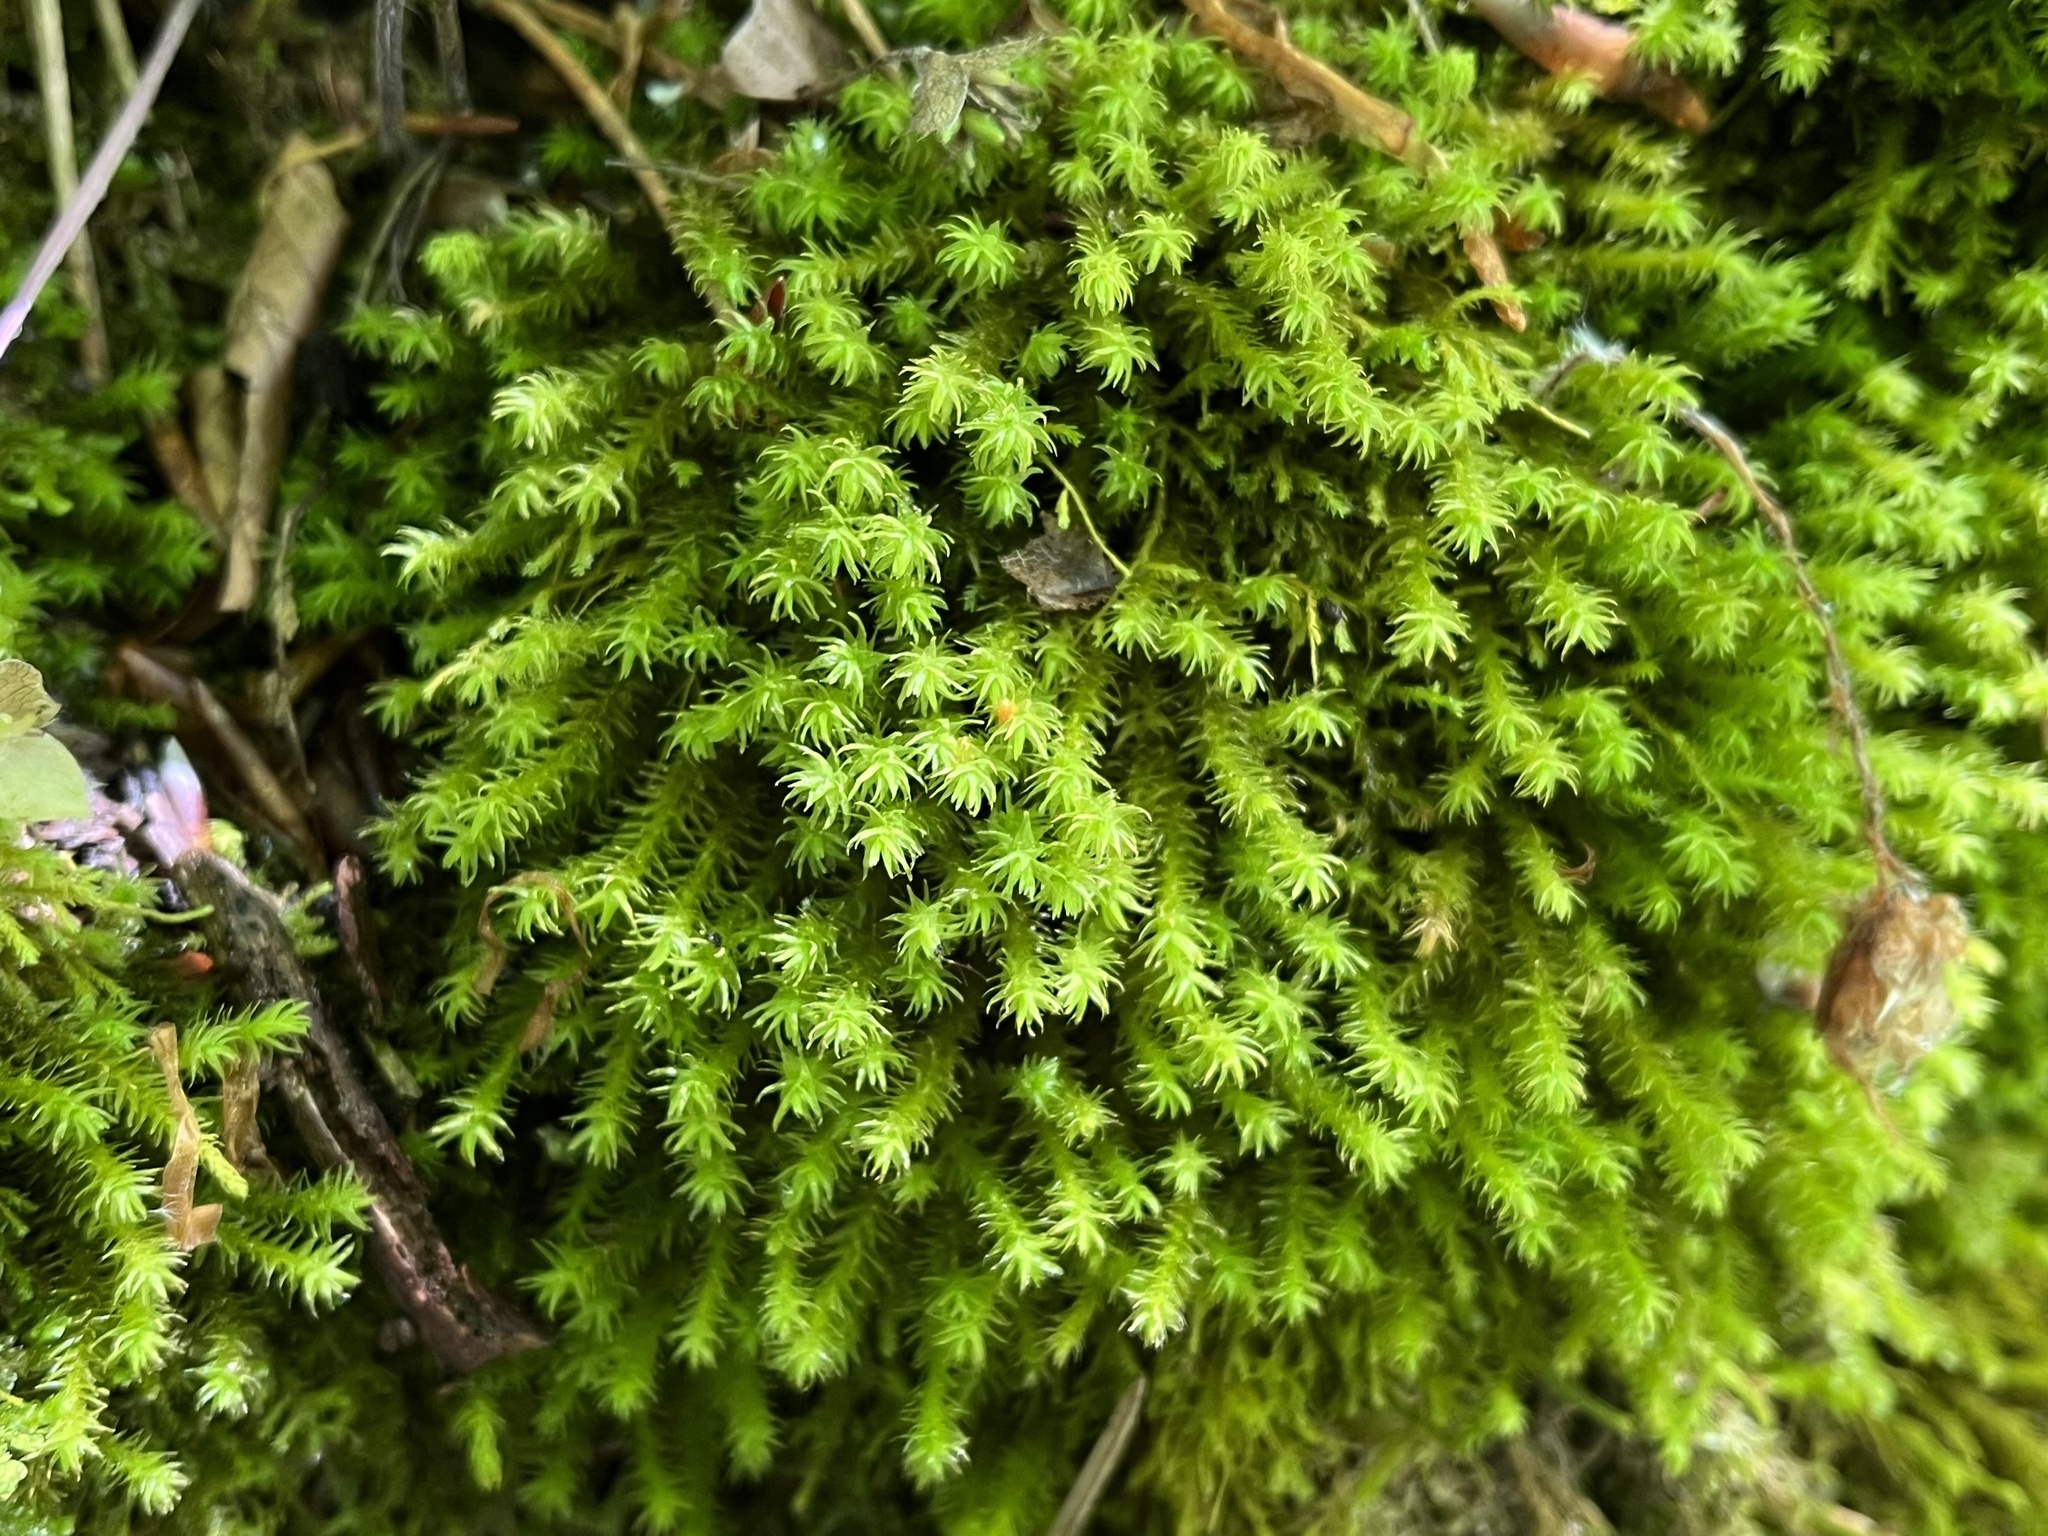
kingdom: Plantae
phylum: Bryophyta
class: Bryopsida
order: Hypnales
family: Anomodontaceae
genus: Anomodon
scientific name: Anomodon viticulosus
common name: Tall anomodon
